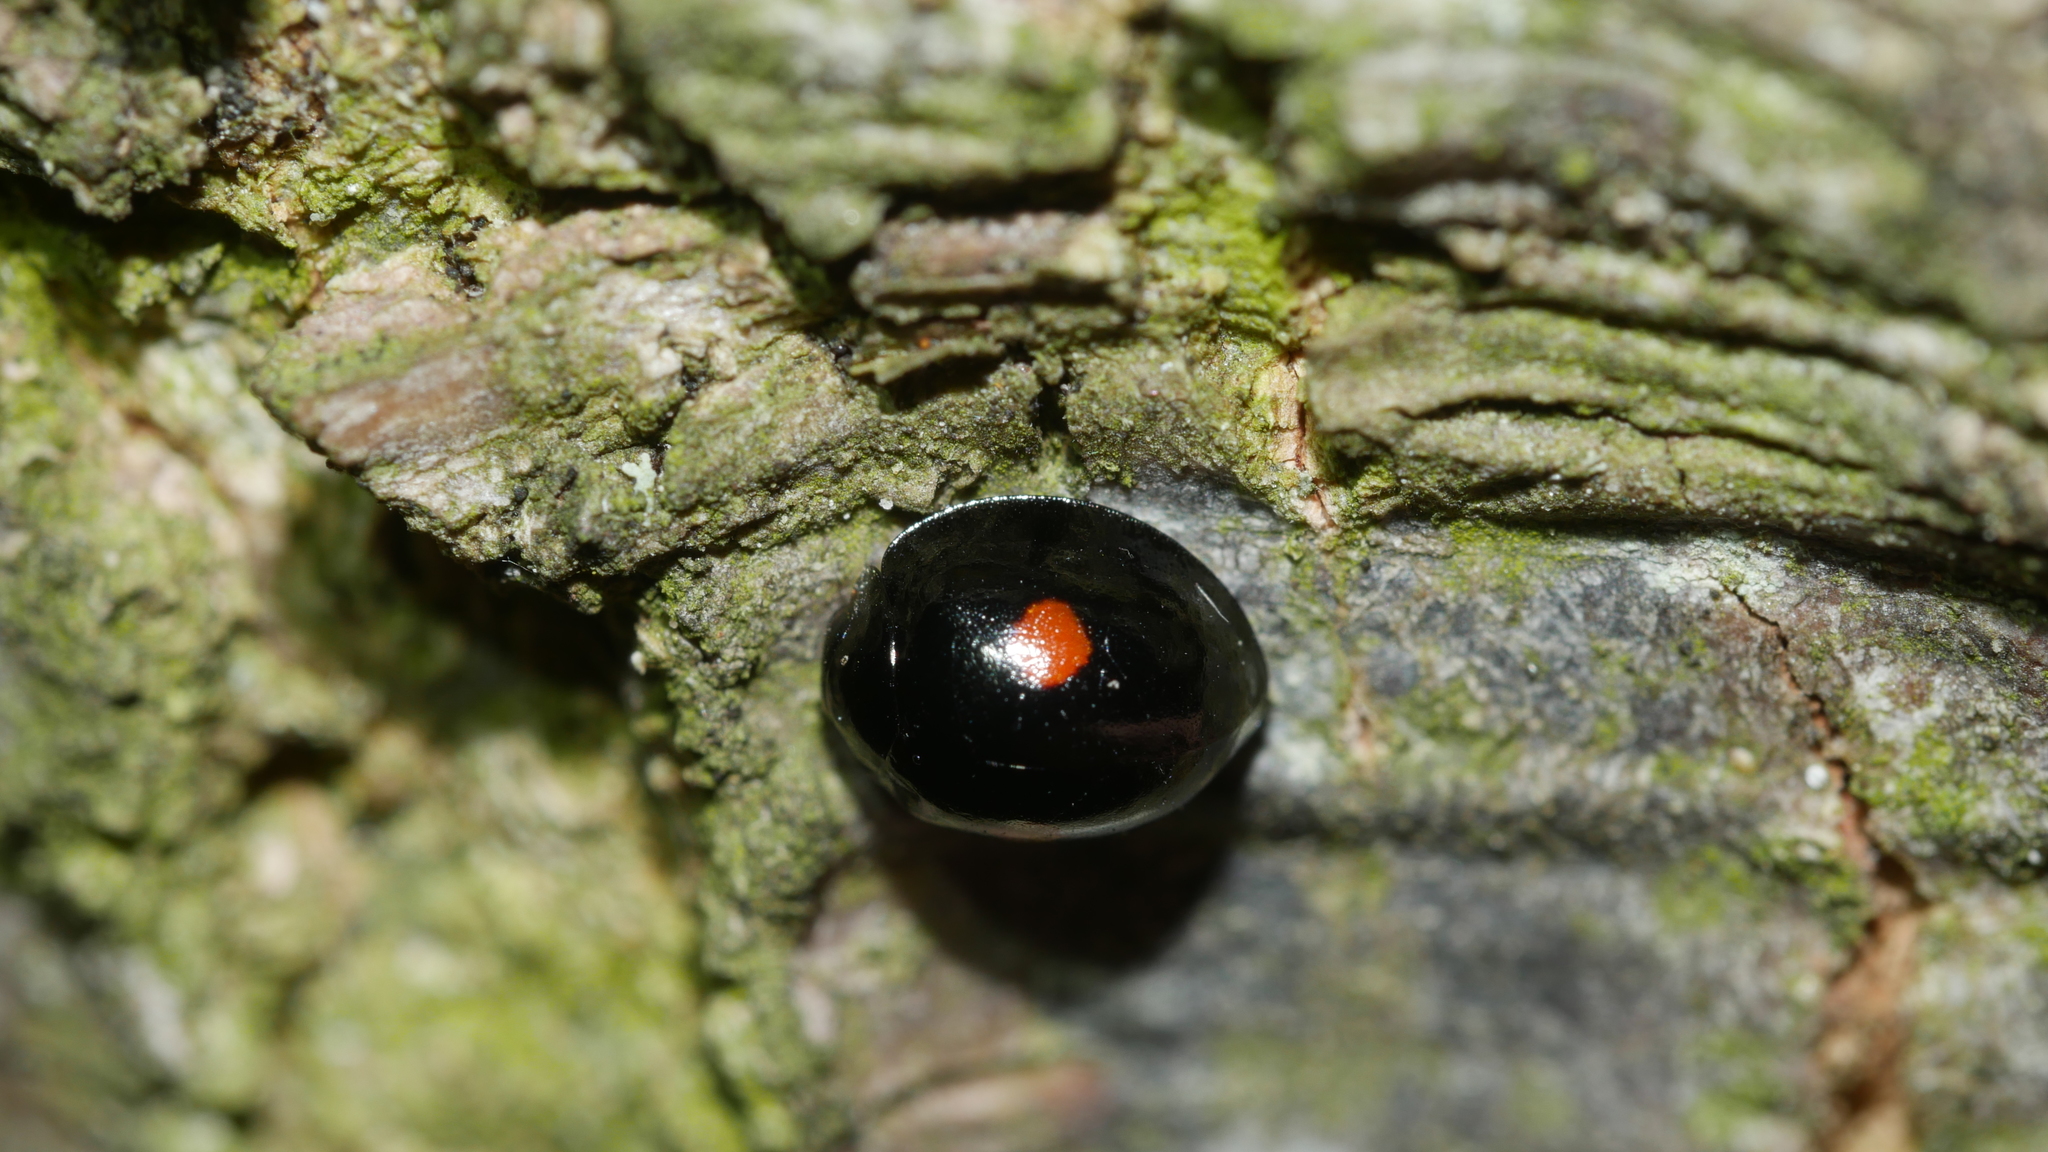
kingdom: Animalia
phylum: Arthropoda
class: Insecta
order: Coleoptera
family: Coccinellidae
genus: Chilocorus
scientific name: Chilocorus stigma
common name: Twicestabbed lady beetle
